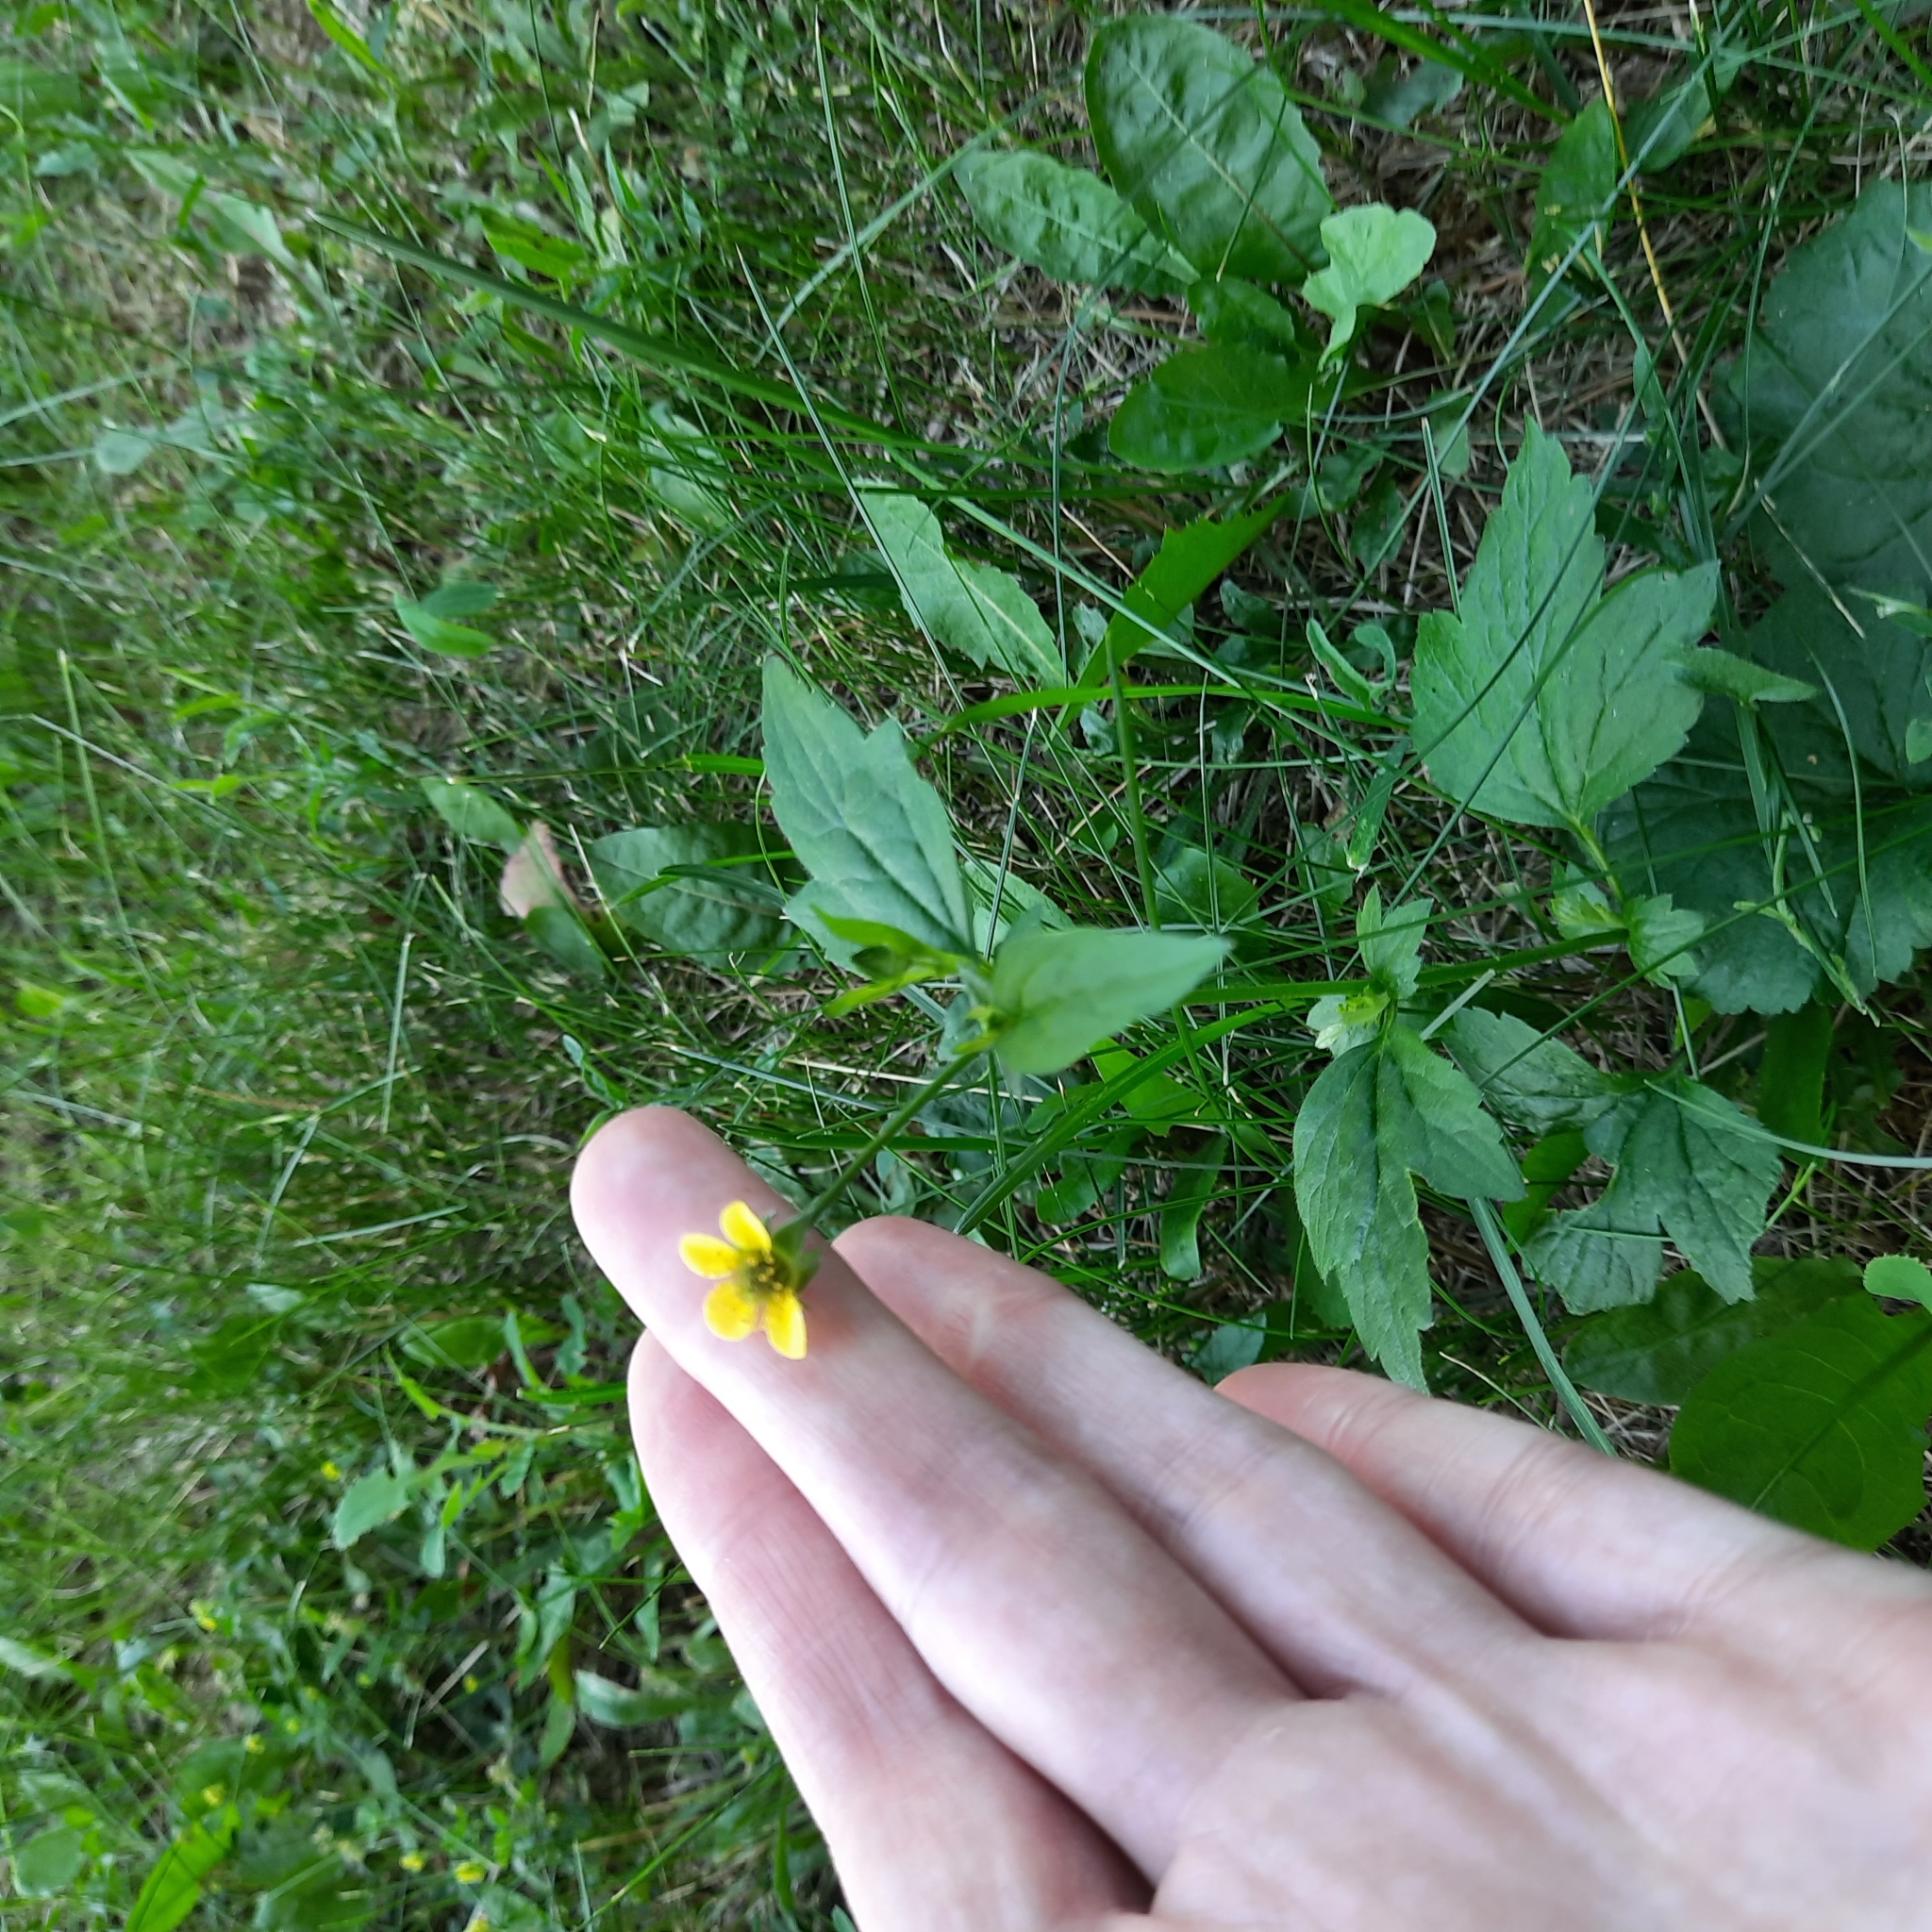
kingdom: Plantae
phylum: Tracheophyta
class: Magnoliopsida
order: Rosales
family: Rosaceae
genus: Geum
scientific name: Geum urbanum
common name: Wood avens
